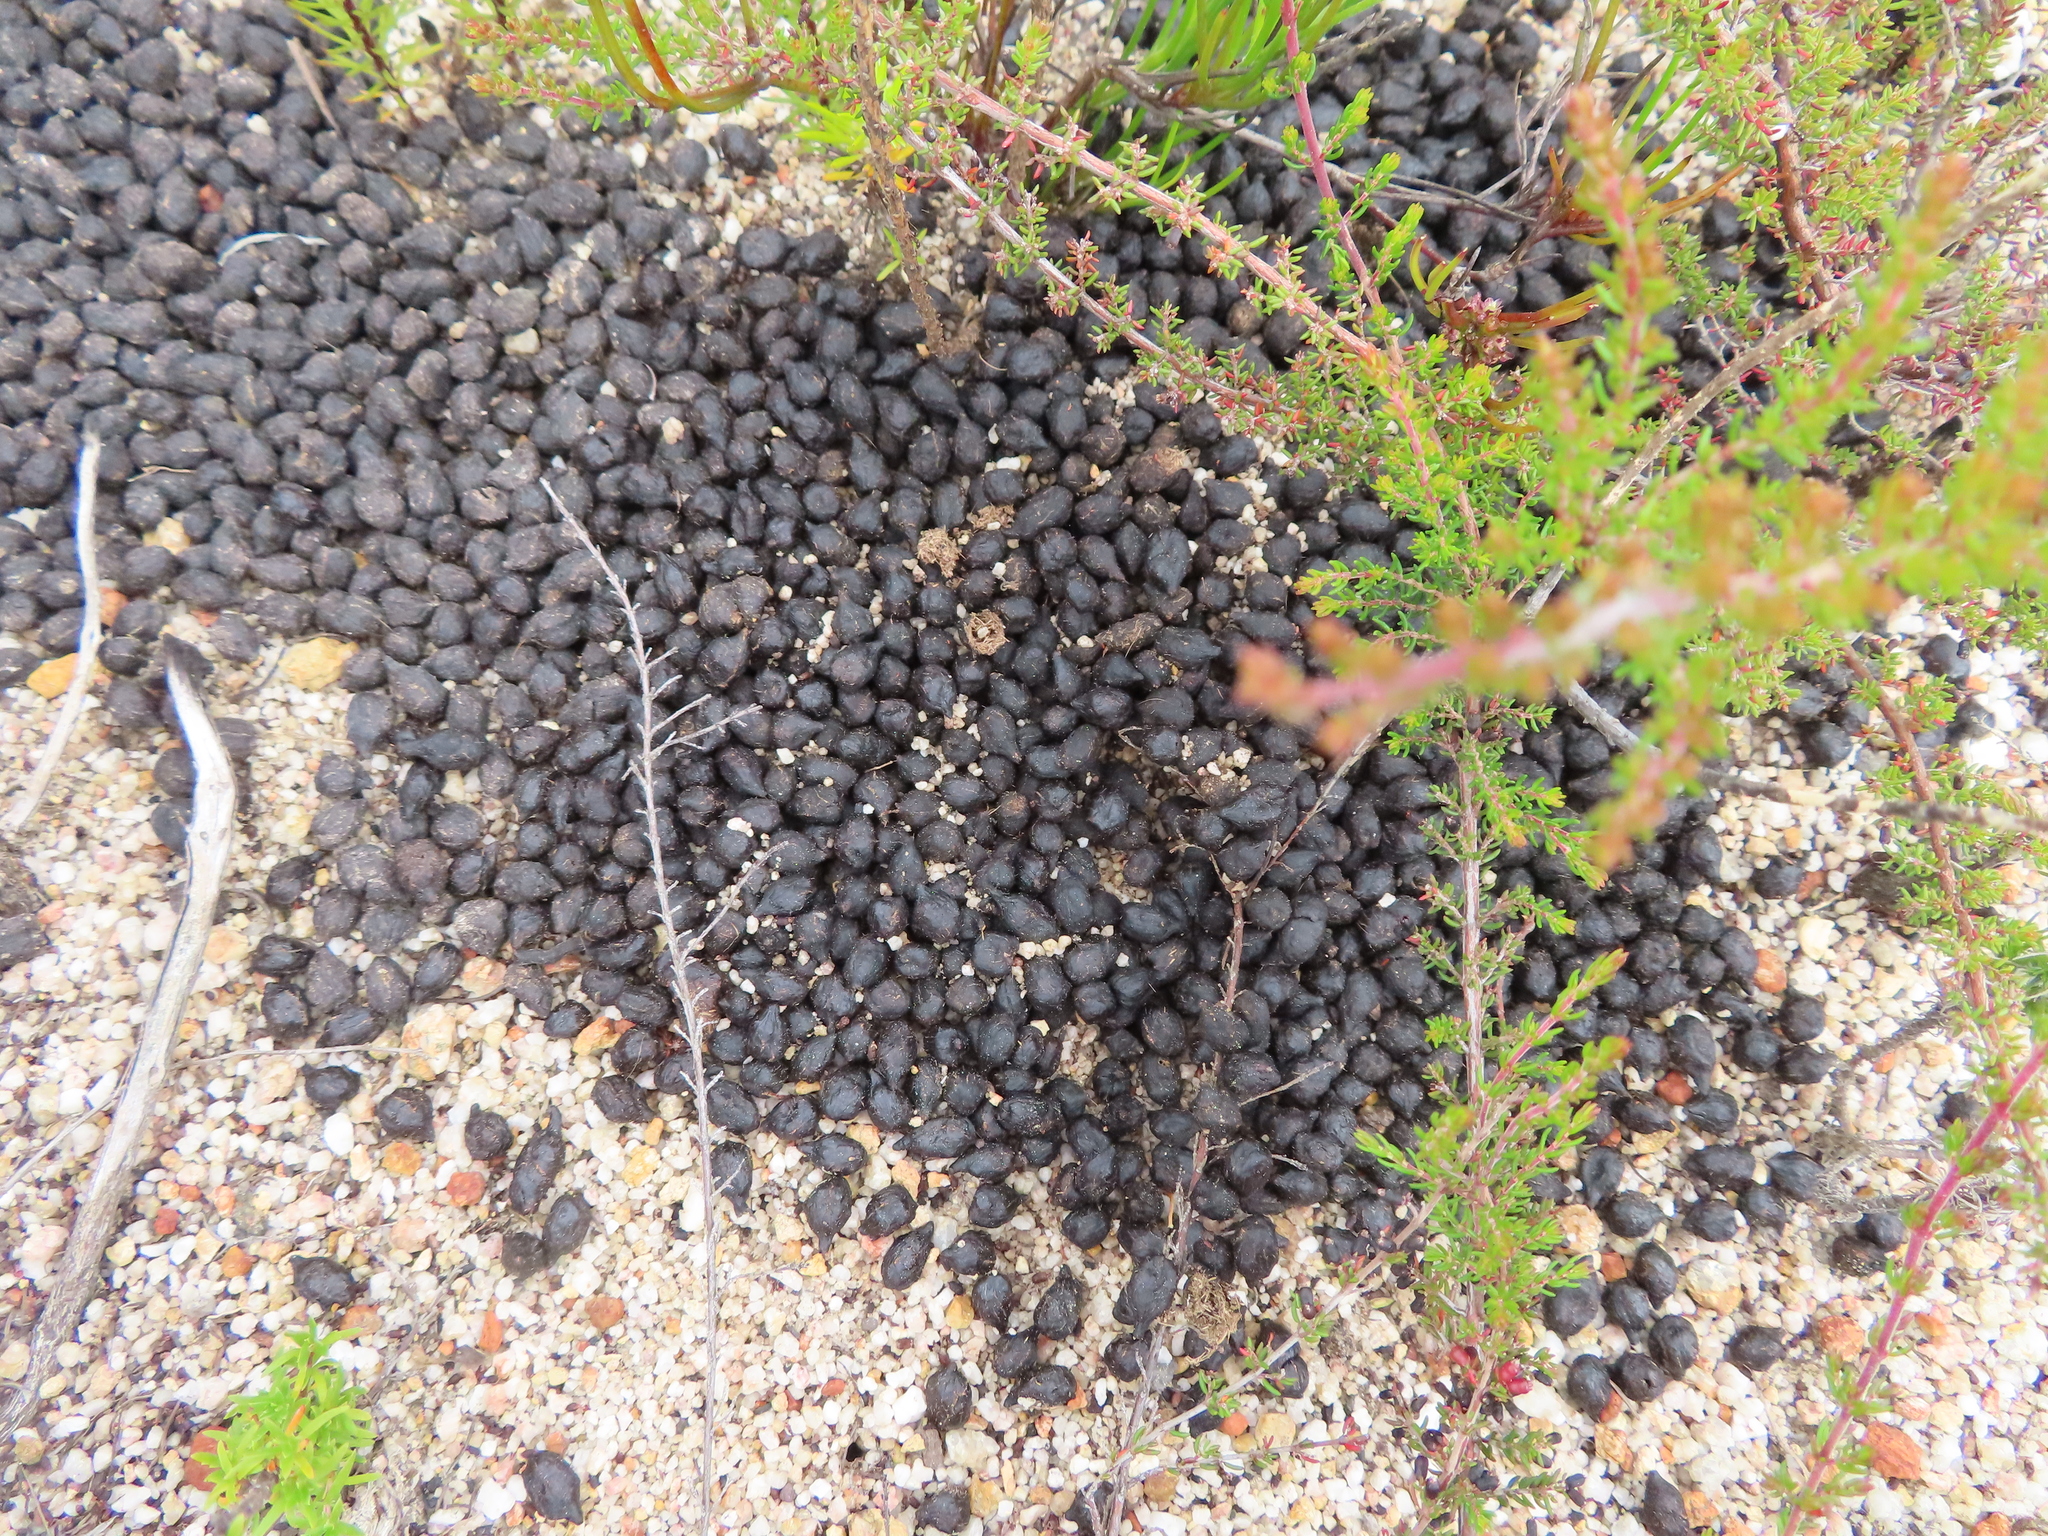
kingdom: Animalia
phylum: Chordata
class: Mammalia
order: Artiodactyla
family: Bovidae
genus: Raphicerus
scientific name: Raphicerus melanotis
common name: Cape grysbok
